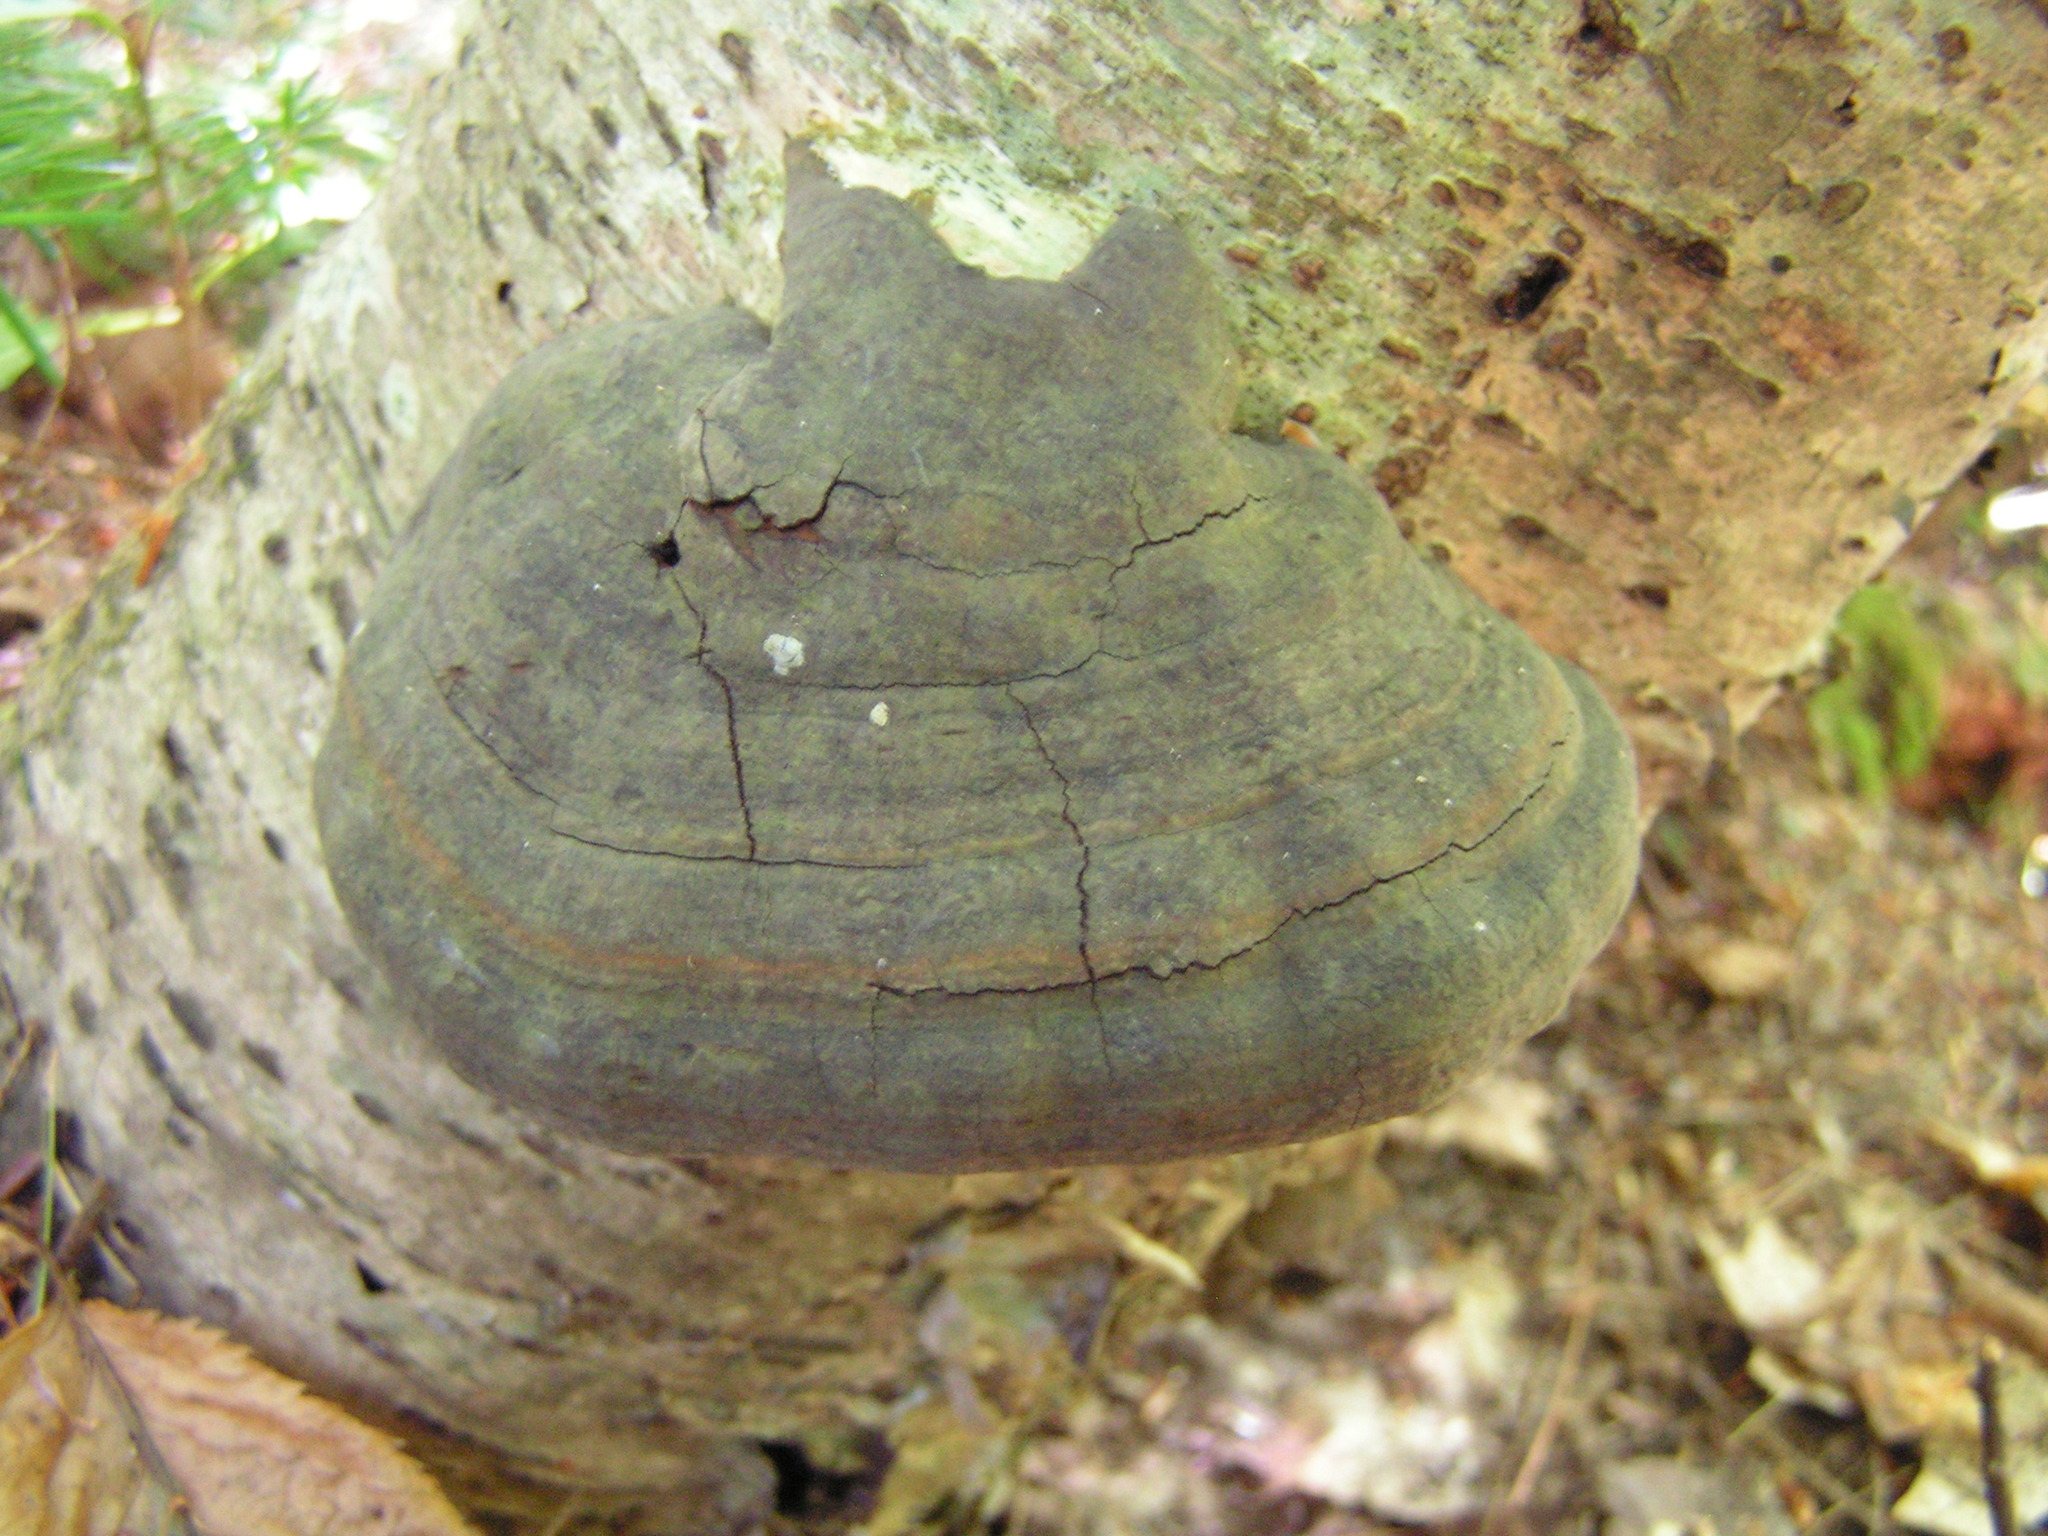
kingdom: Fungi
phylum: Basidiomycota
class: Agaricomycetes
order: Polyporales
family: Polyporaceae
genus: Fomes
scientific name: Fomes fomentarius
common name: Hoof fungus
